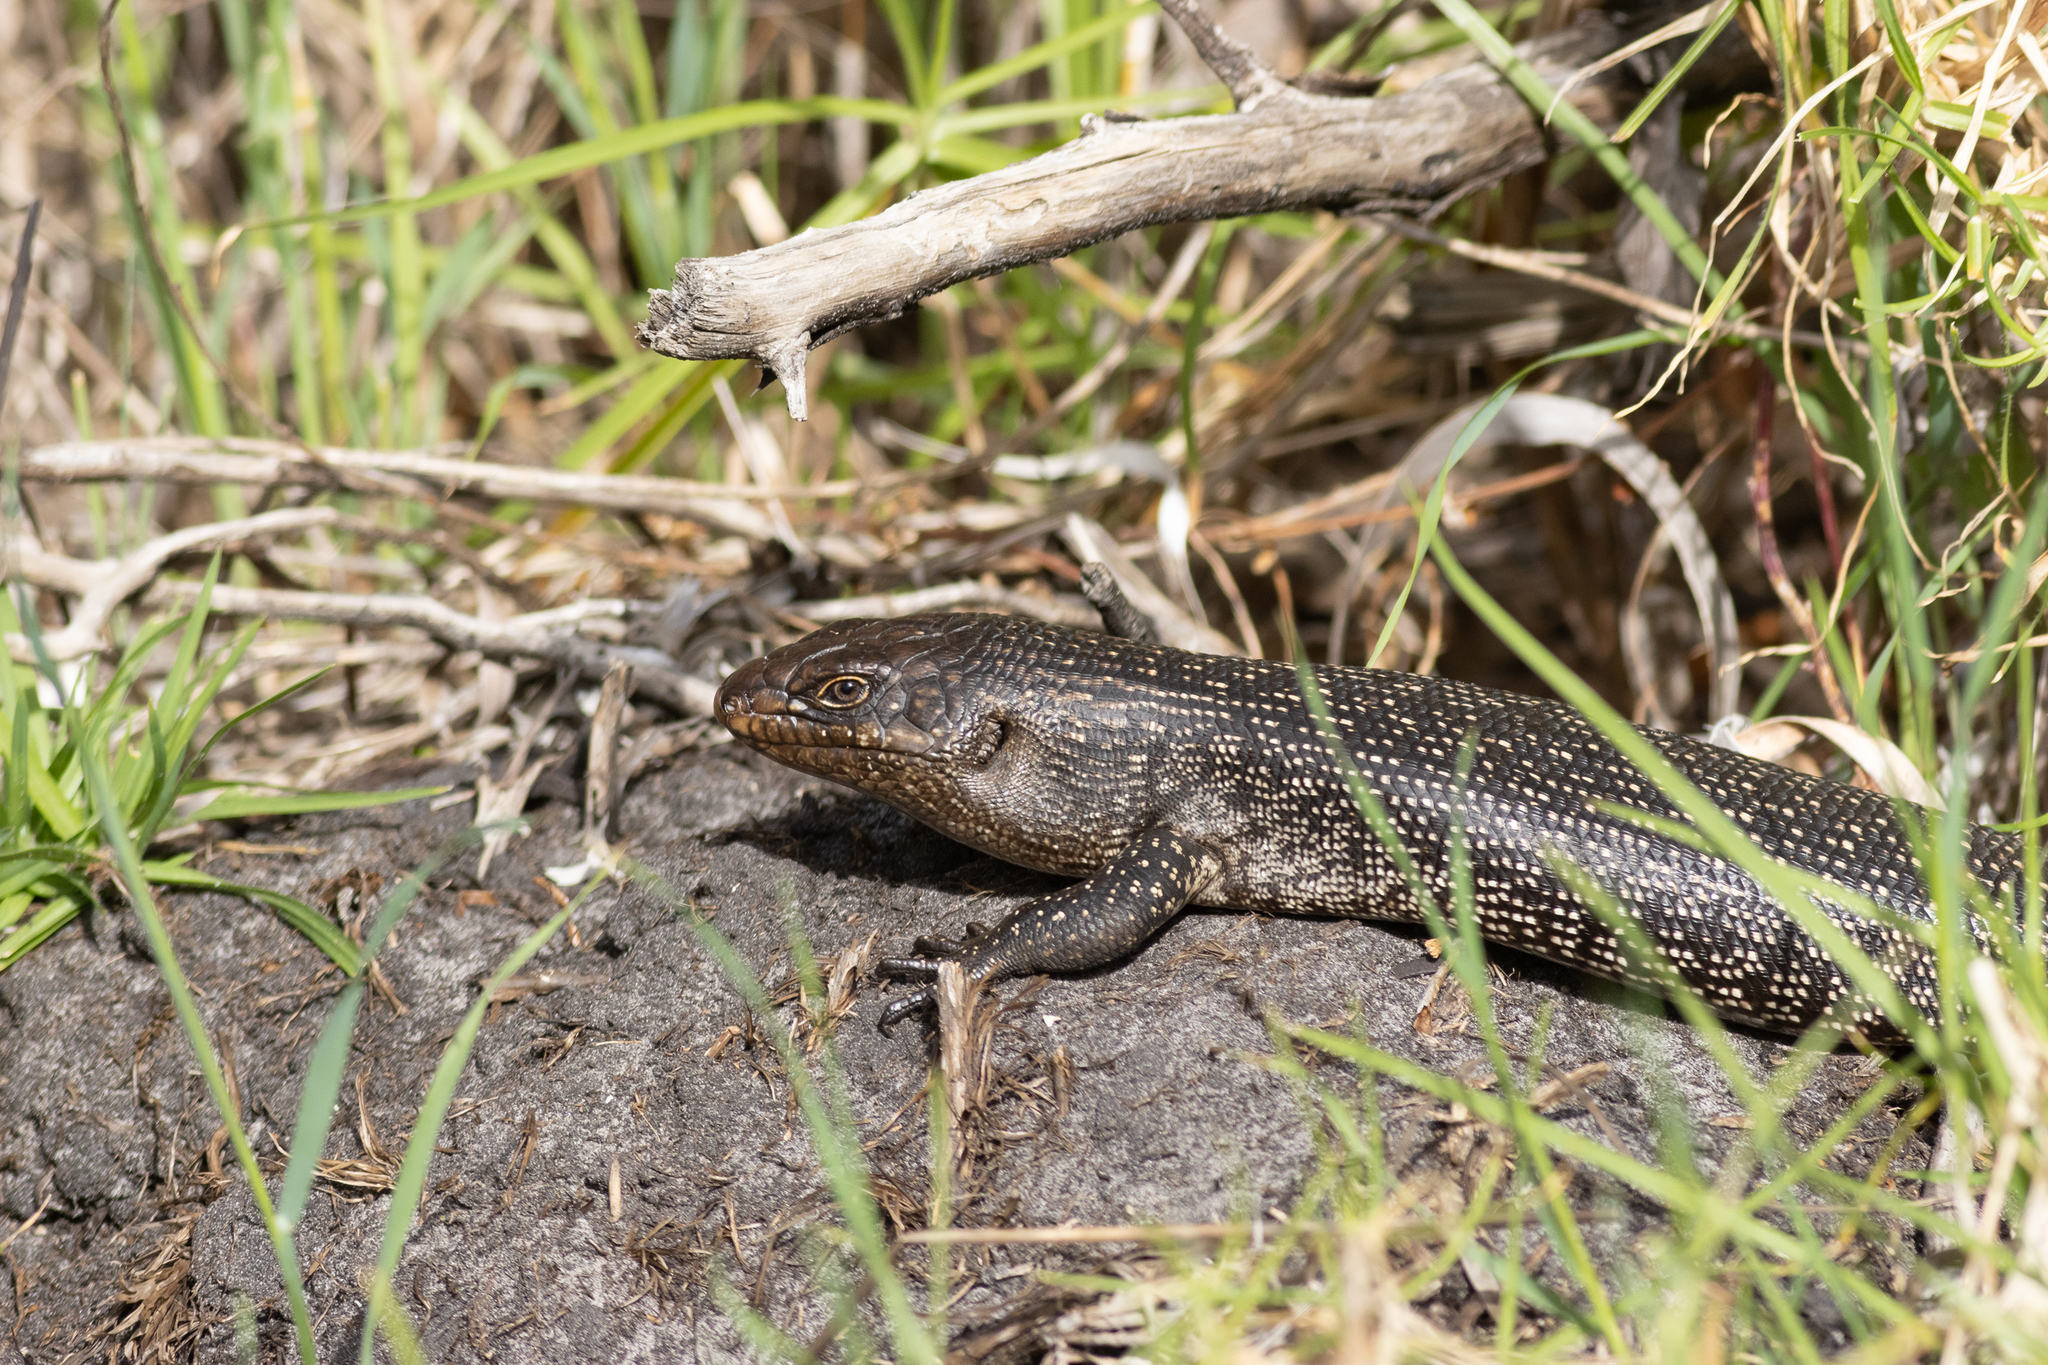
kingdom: Animalia
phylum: Chordata
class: Squamata
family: Scincidae
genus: Egernia
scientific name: Egernia kingii
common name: King's skink
